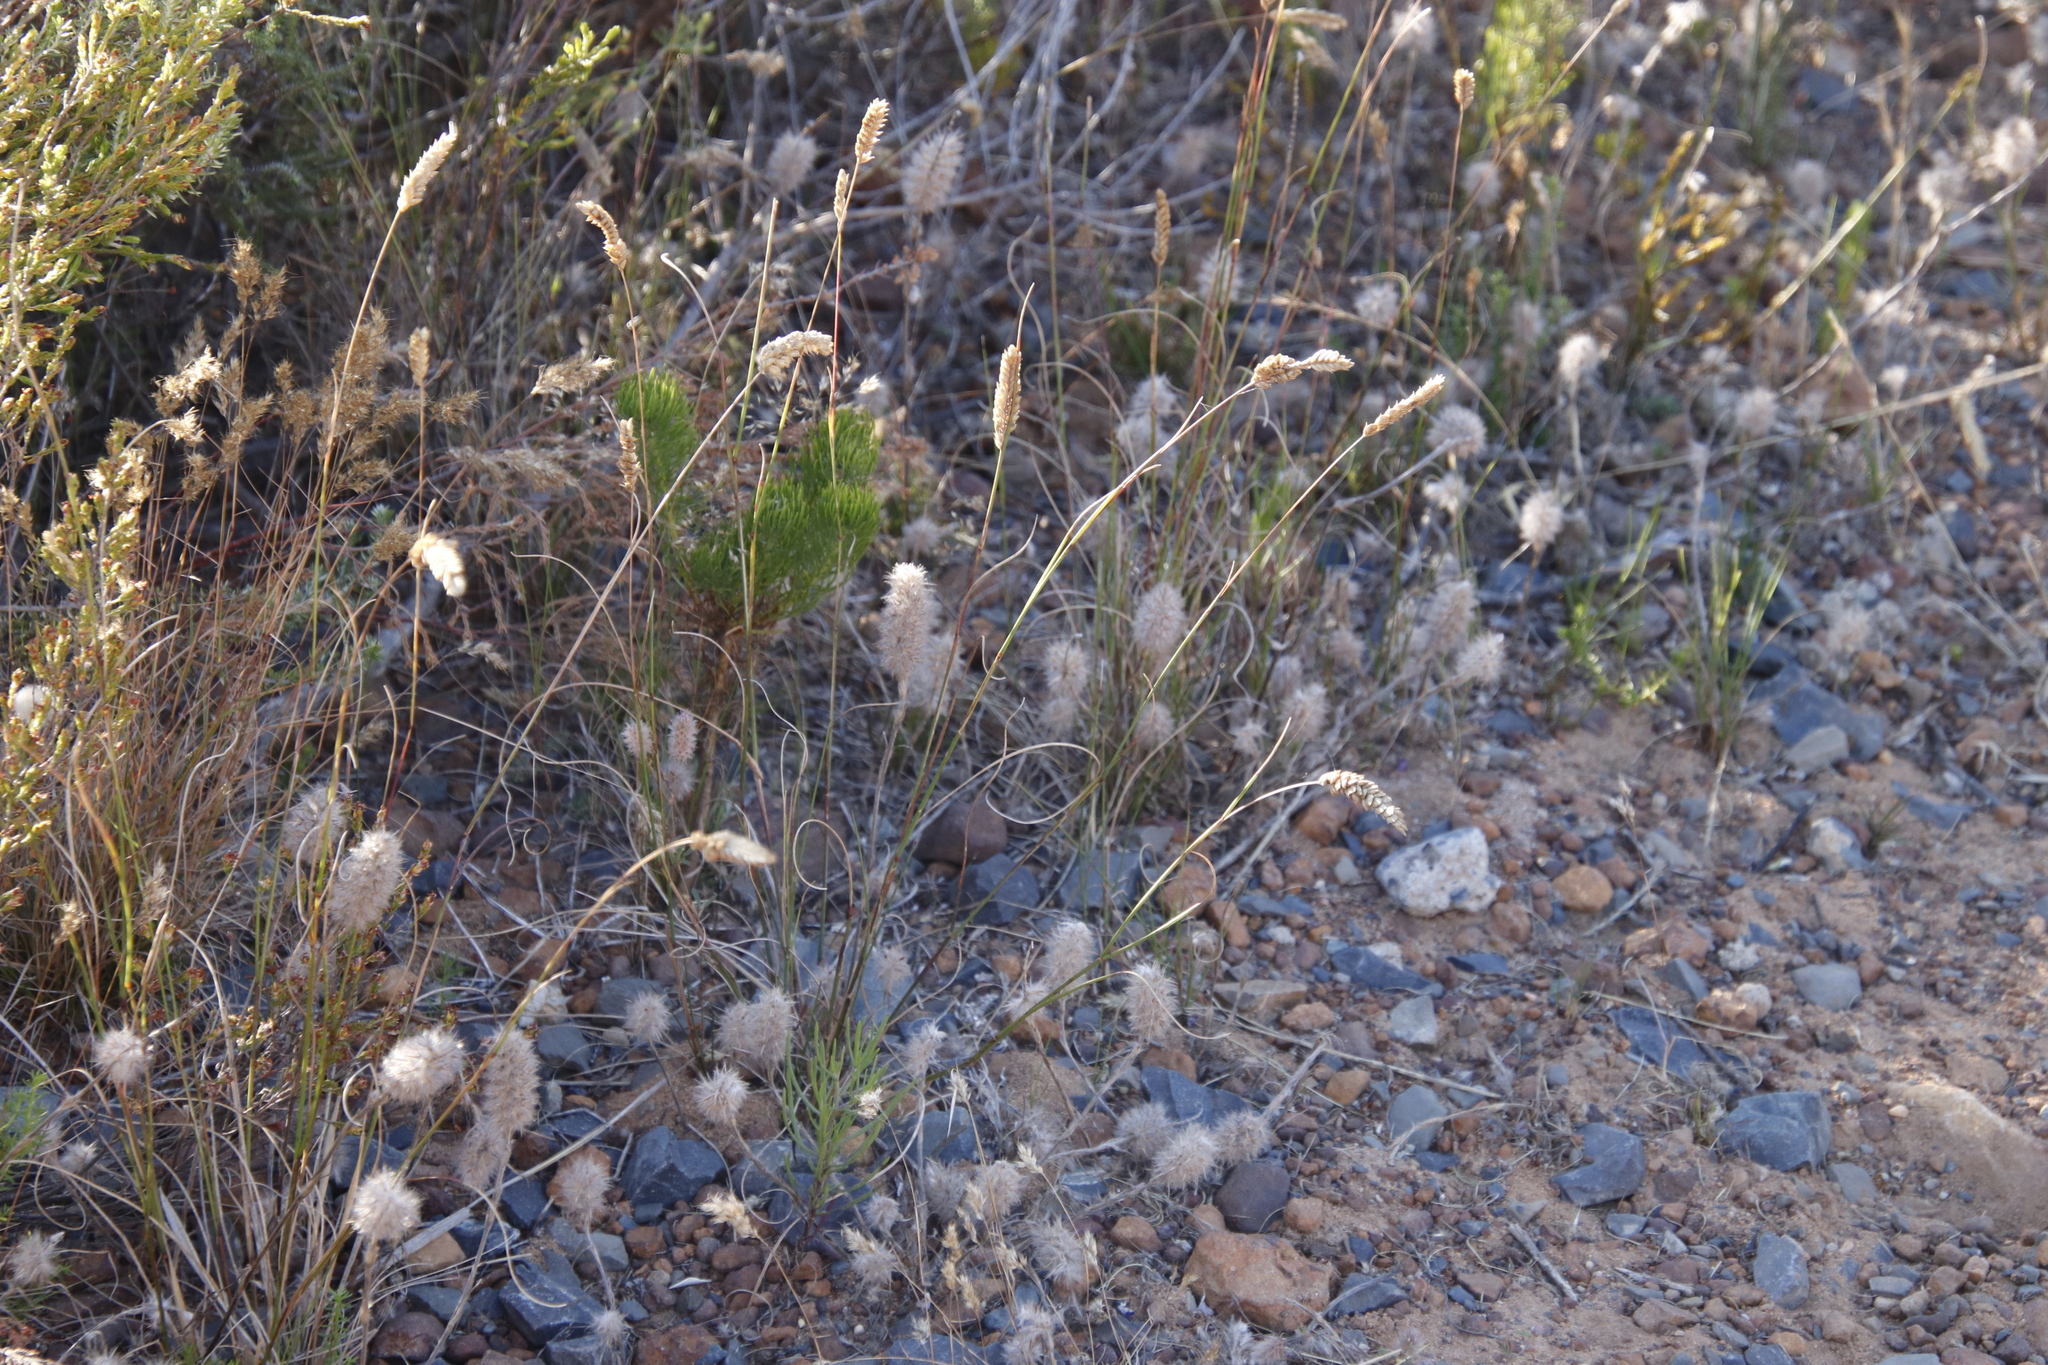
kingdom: Plantae
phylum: Tracheophyta
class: Liliopsida
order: Poales
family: Poaceae
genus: Tribolium
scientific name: Tribolium uniolae
